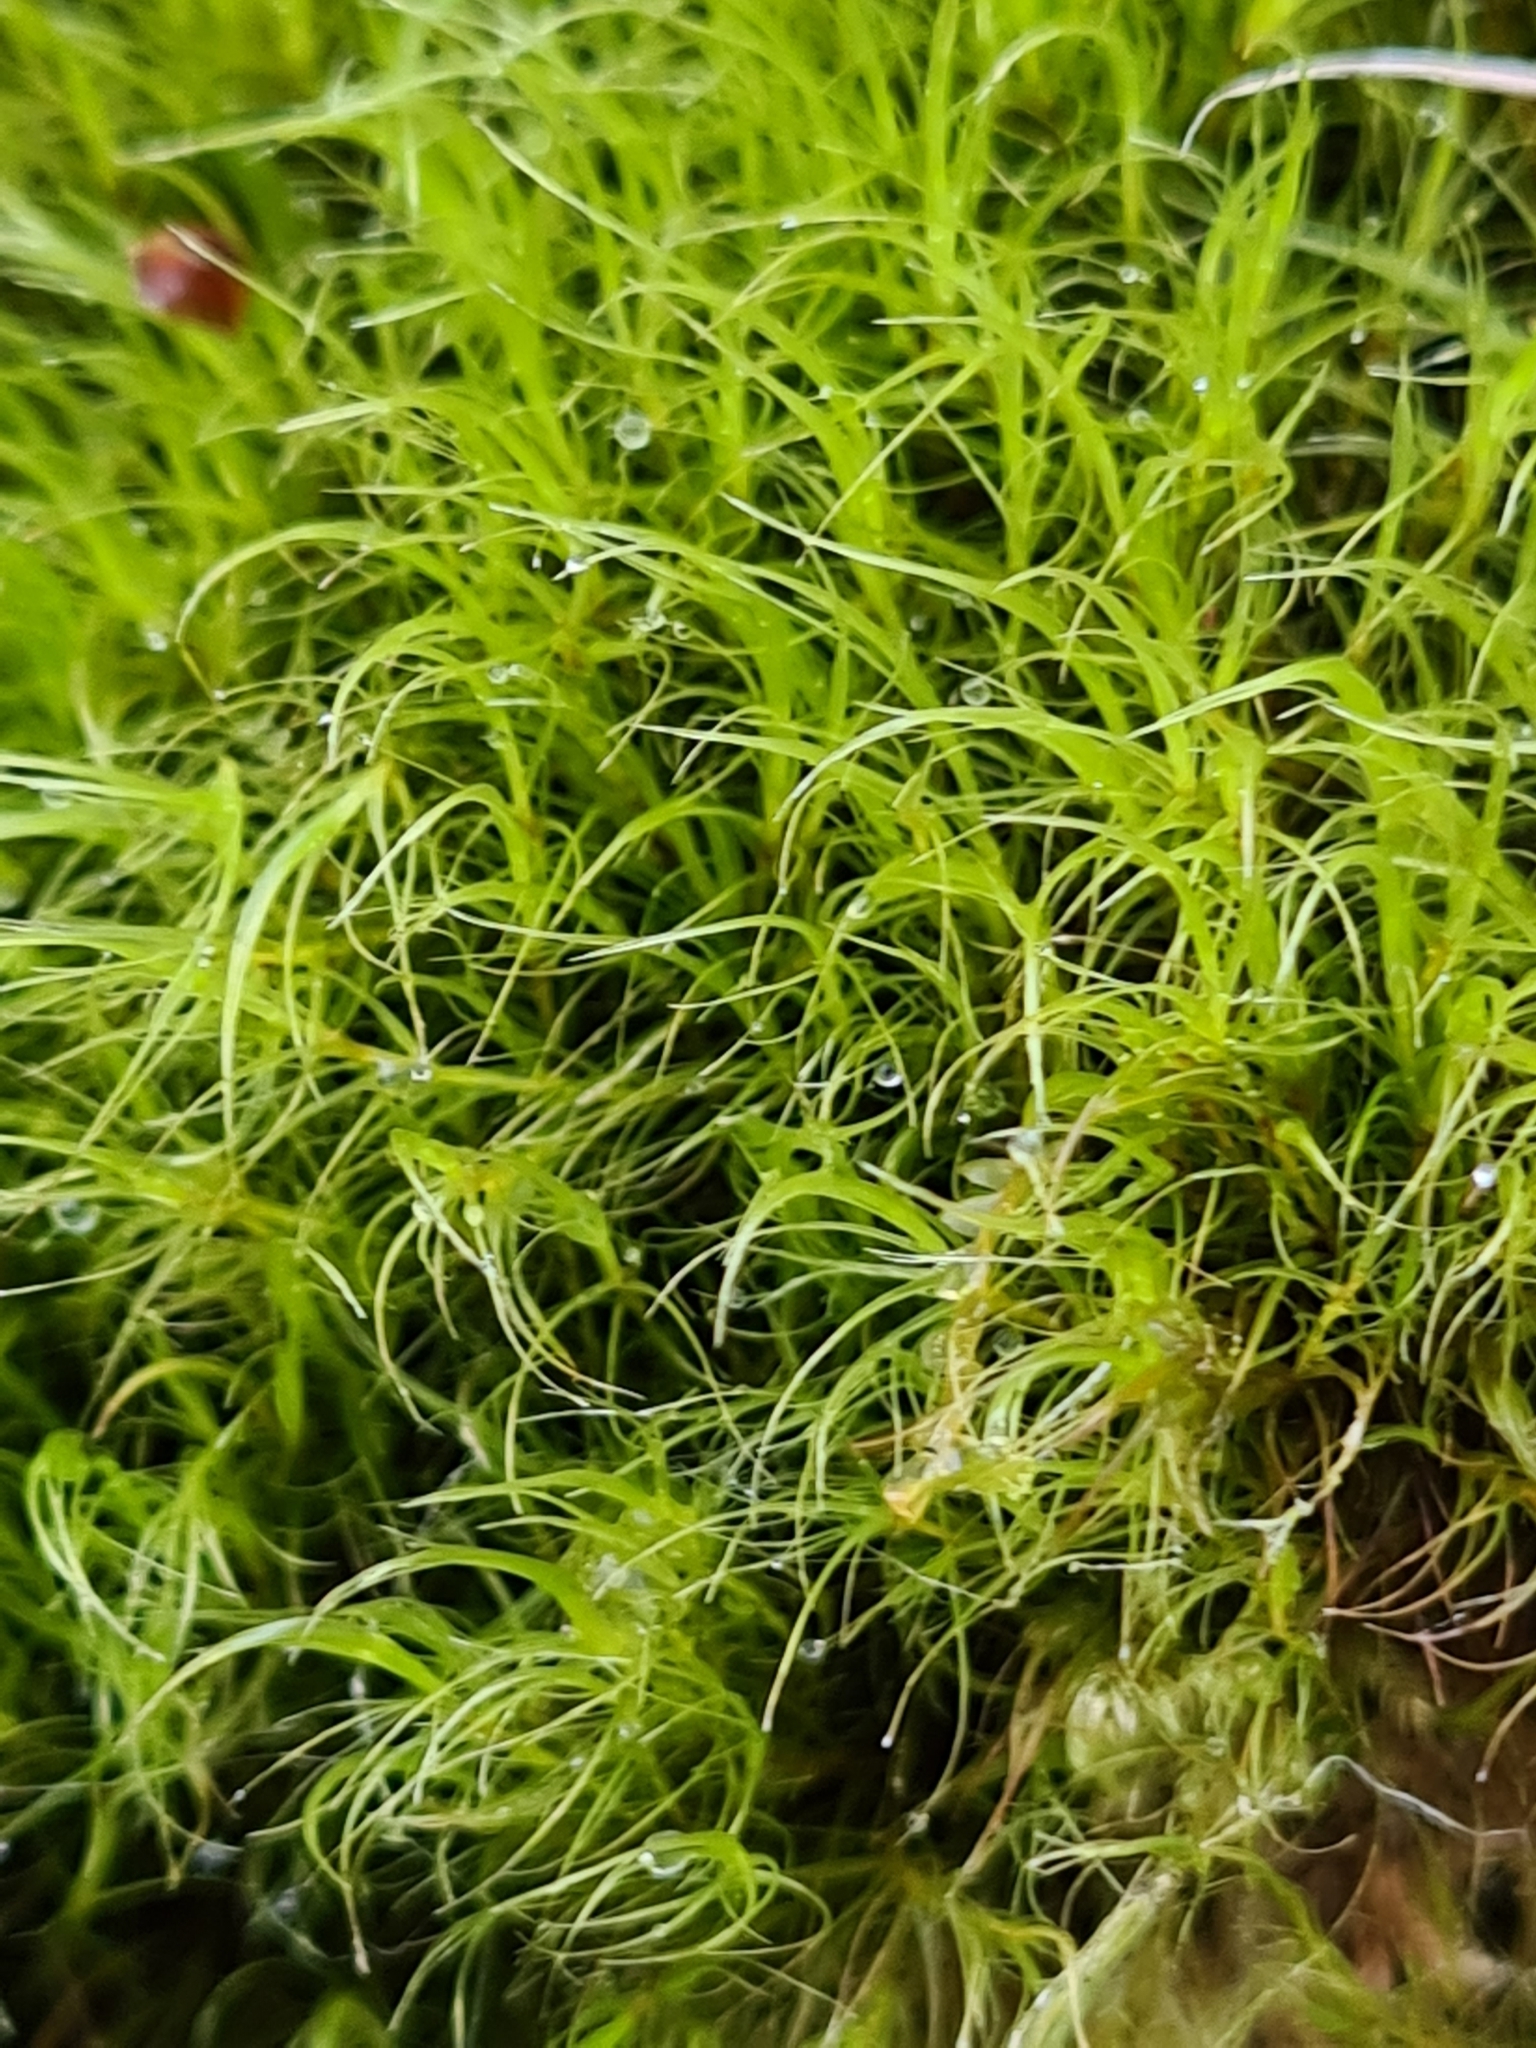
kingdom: Plantae
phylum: Bryophyta
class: Bryopsida
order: Scouleriales
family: Flexitrichaceae
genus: Flexitrichum
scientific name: Flexitrichum gracile
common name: Slender ditrichum
